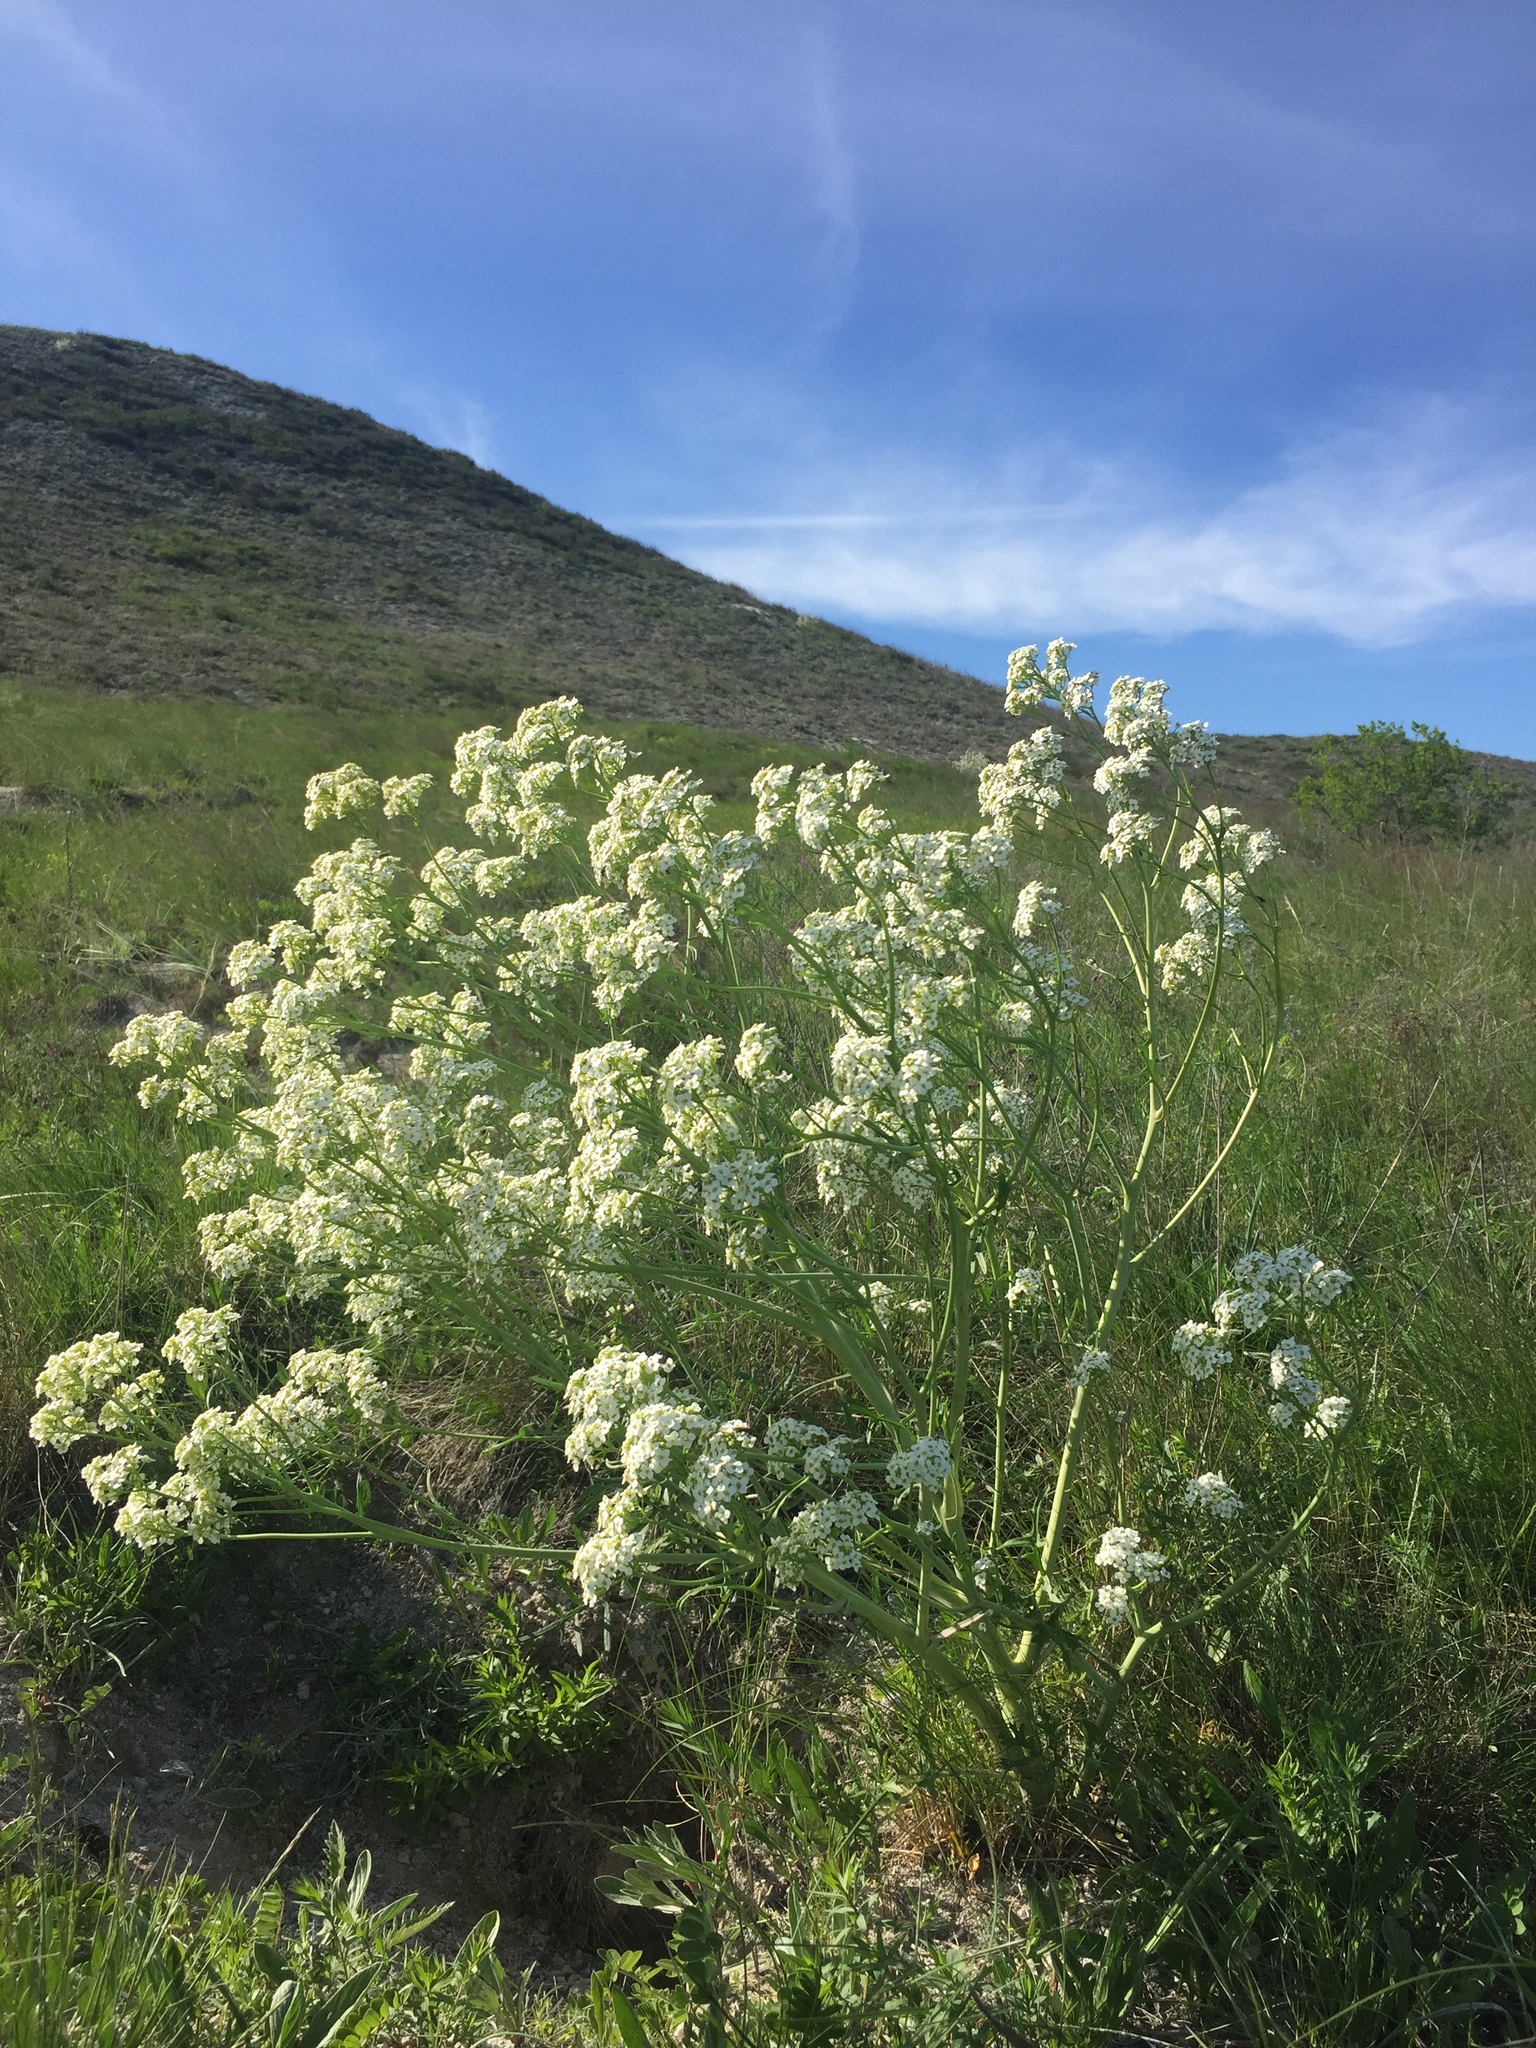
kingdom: Plantae
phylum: Tracheophyta
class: Magnoliopsida
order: Brassicales
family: Brassicaceae
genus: Crambe
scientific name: Crambe tataria
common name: Tartarian breadplant
